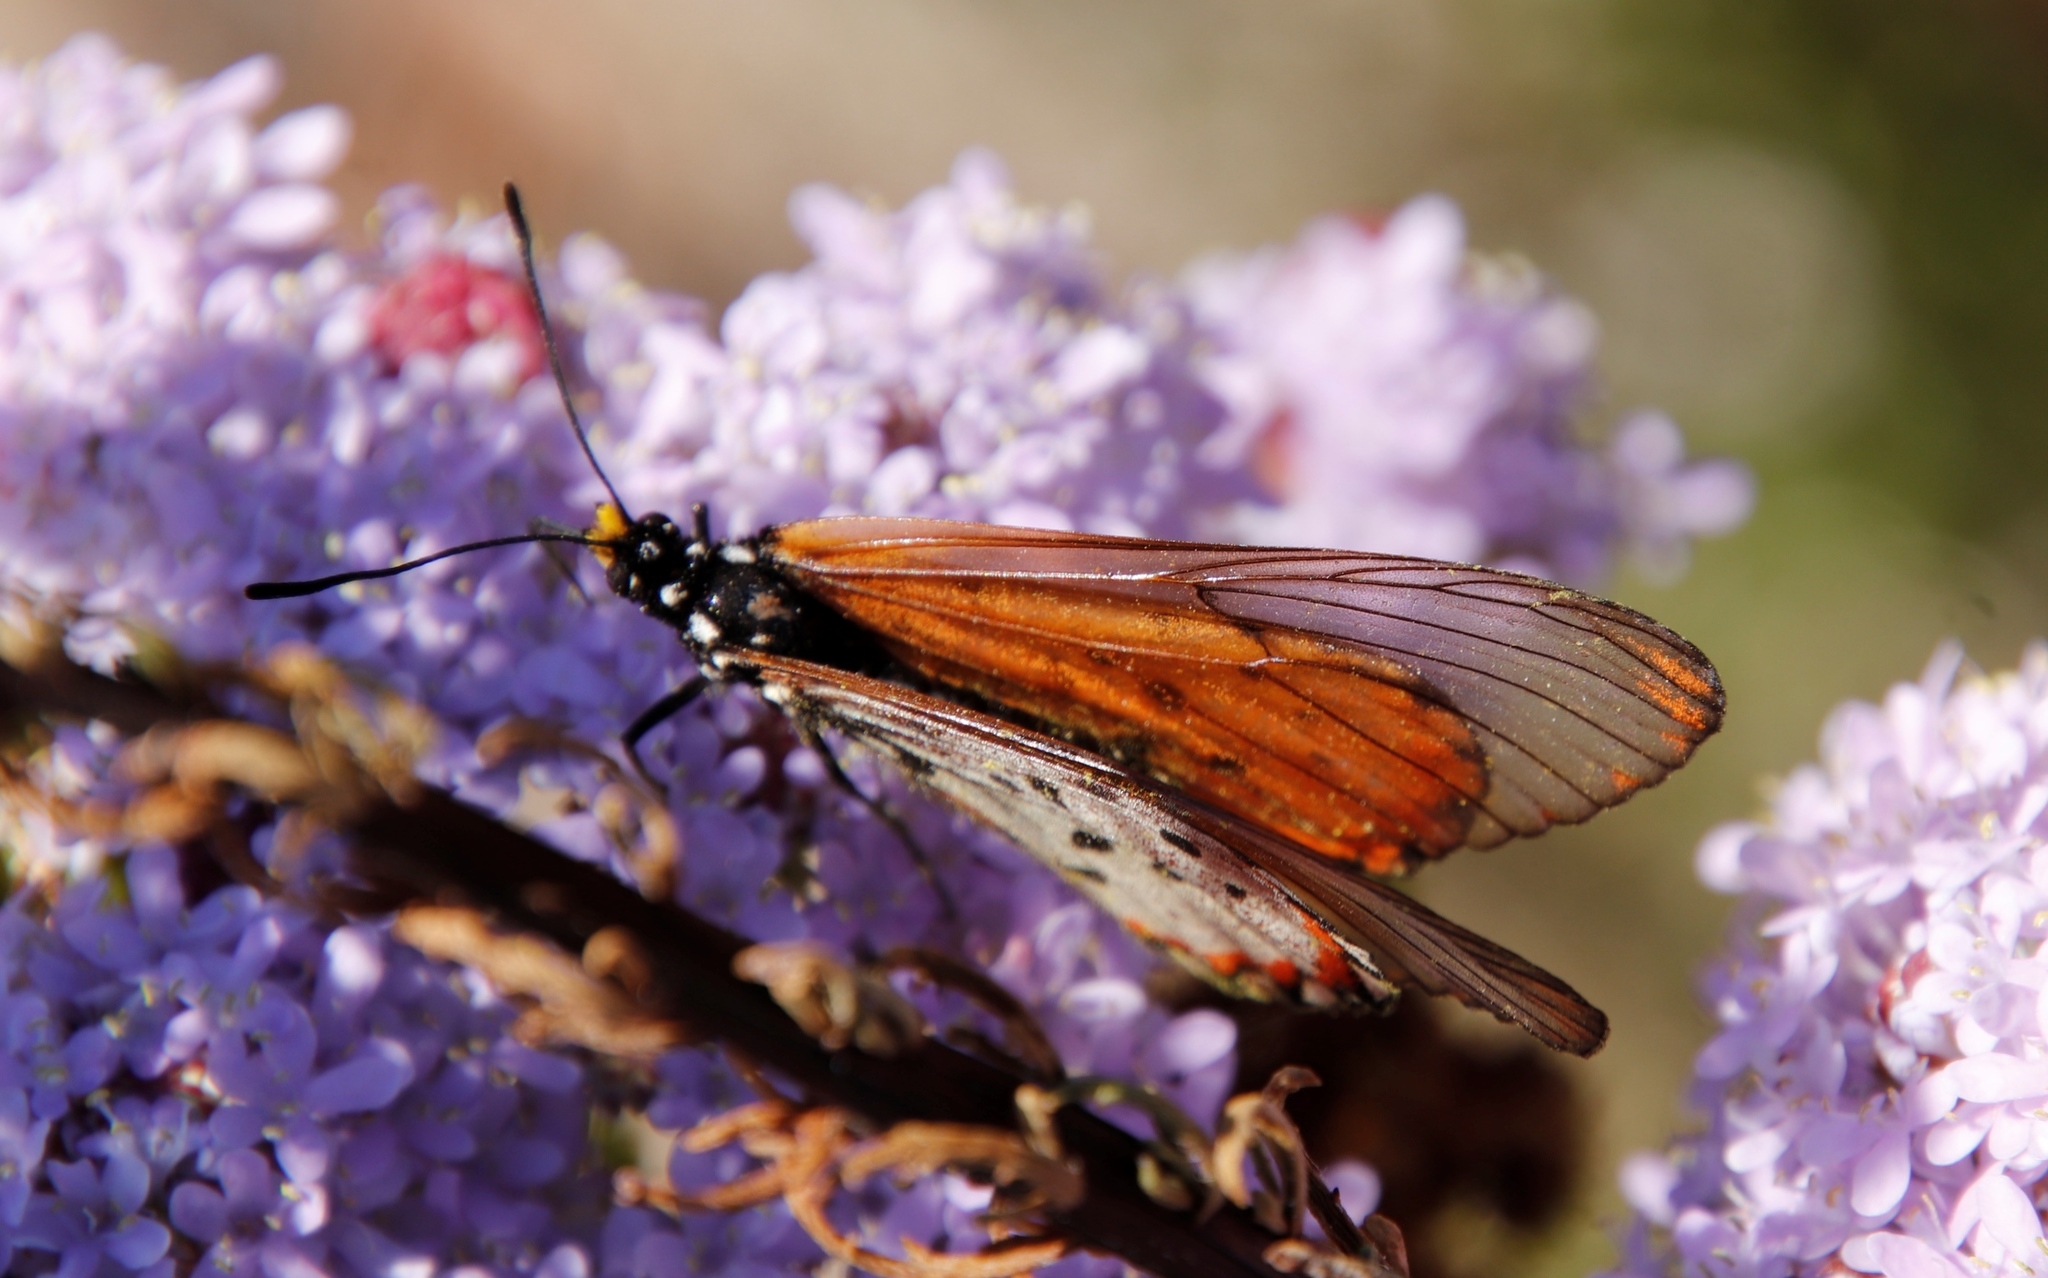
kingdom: Animalia
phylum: Arthropoda
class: Insecta
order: Lepidoptera
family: Nymphalidae
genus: Acraea
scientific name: Acraea horta
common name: Garden acraea
